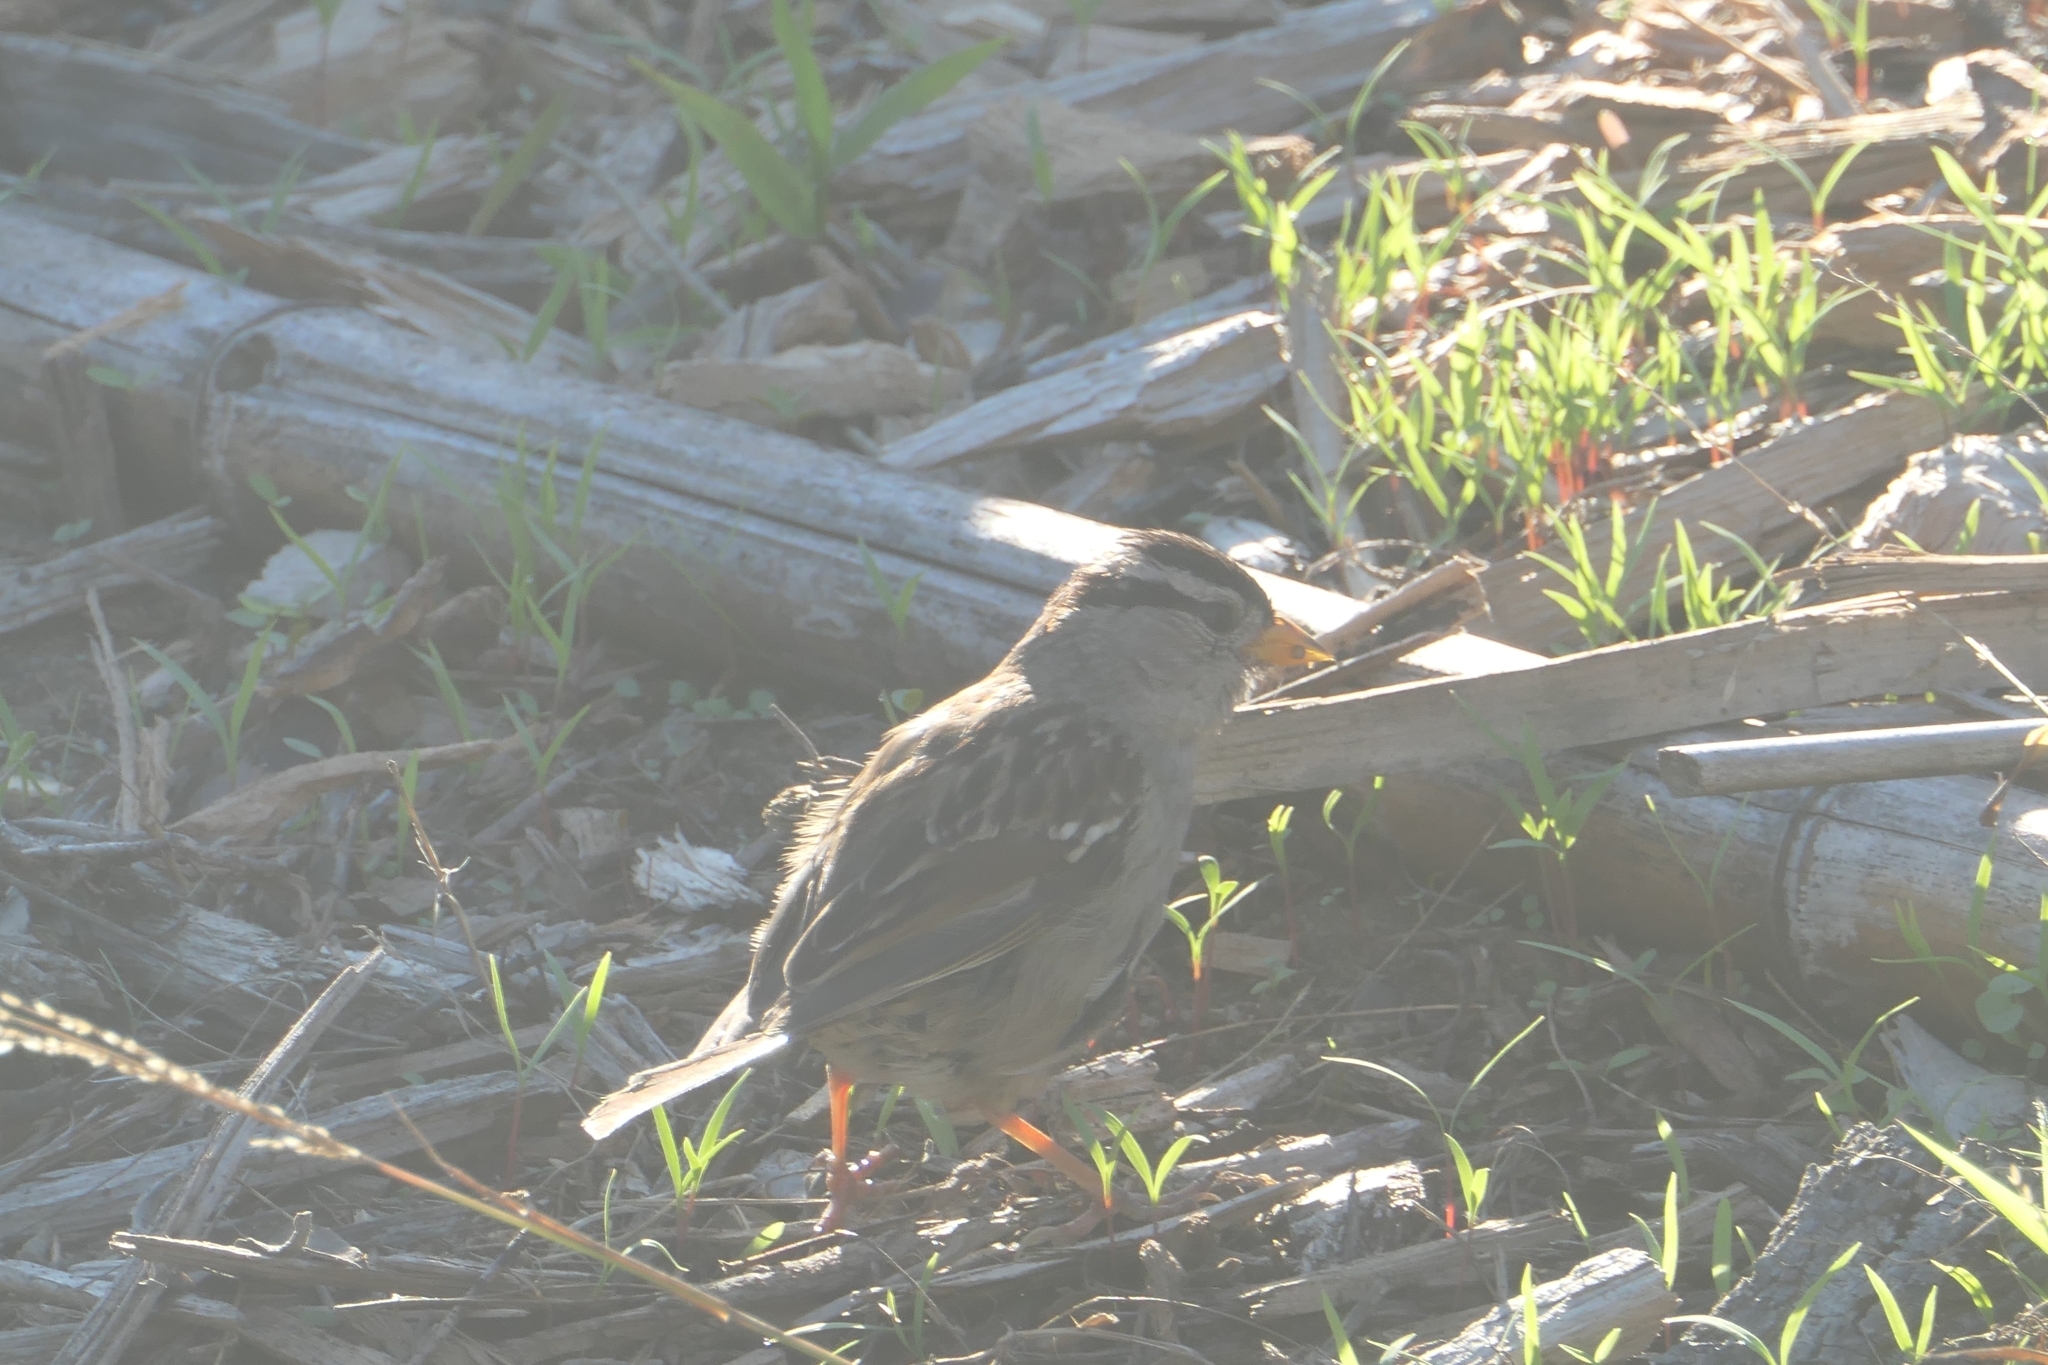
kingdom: Animalia
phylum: Chordata
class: Aves
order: Passeriformes
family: Passerellidae
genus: Zonotrichia
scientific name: Zonotrichia leucophrys
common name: White-crowned sparrow
